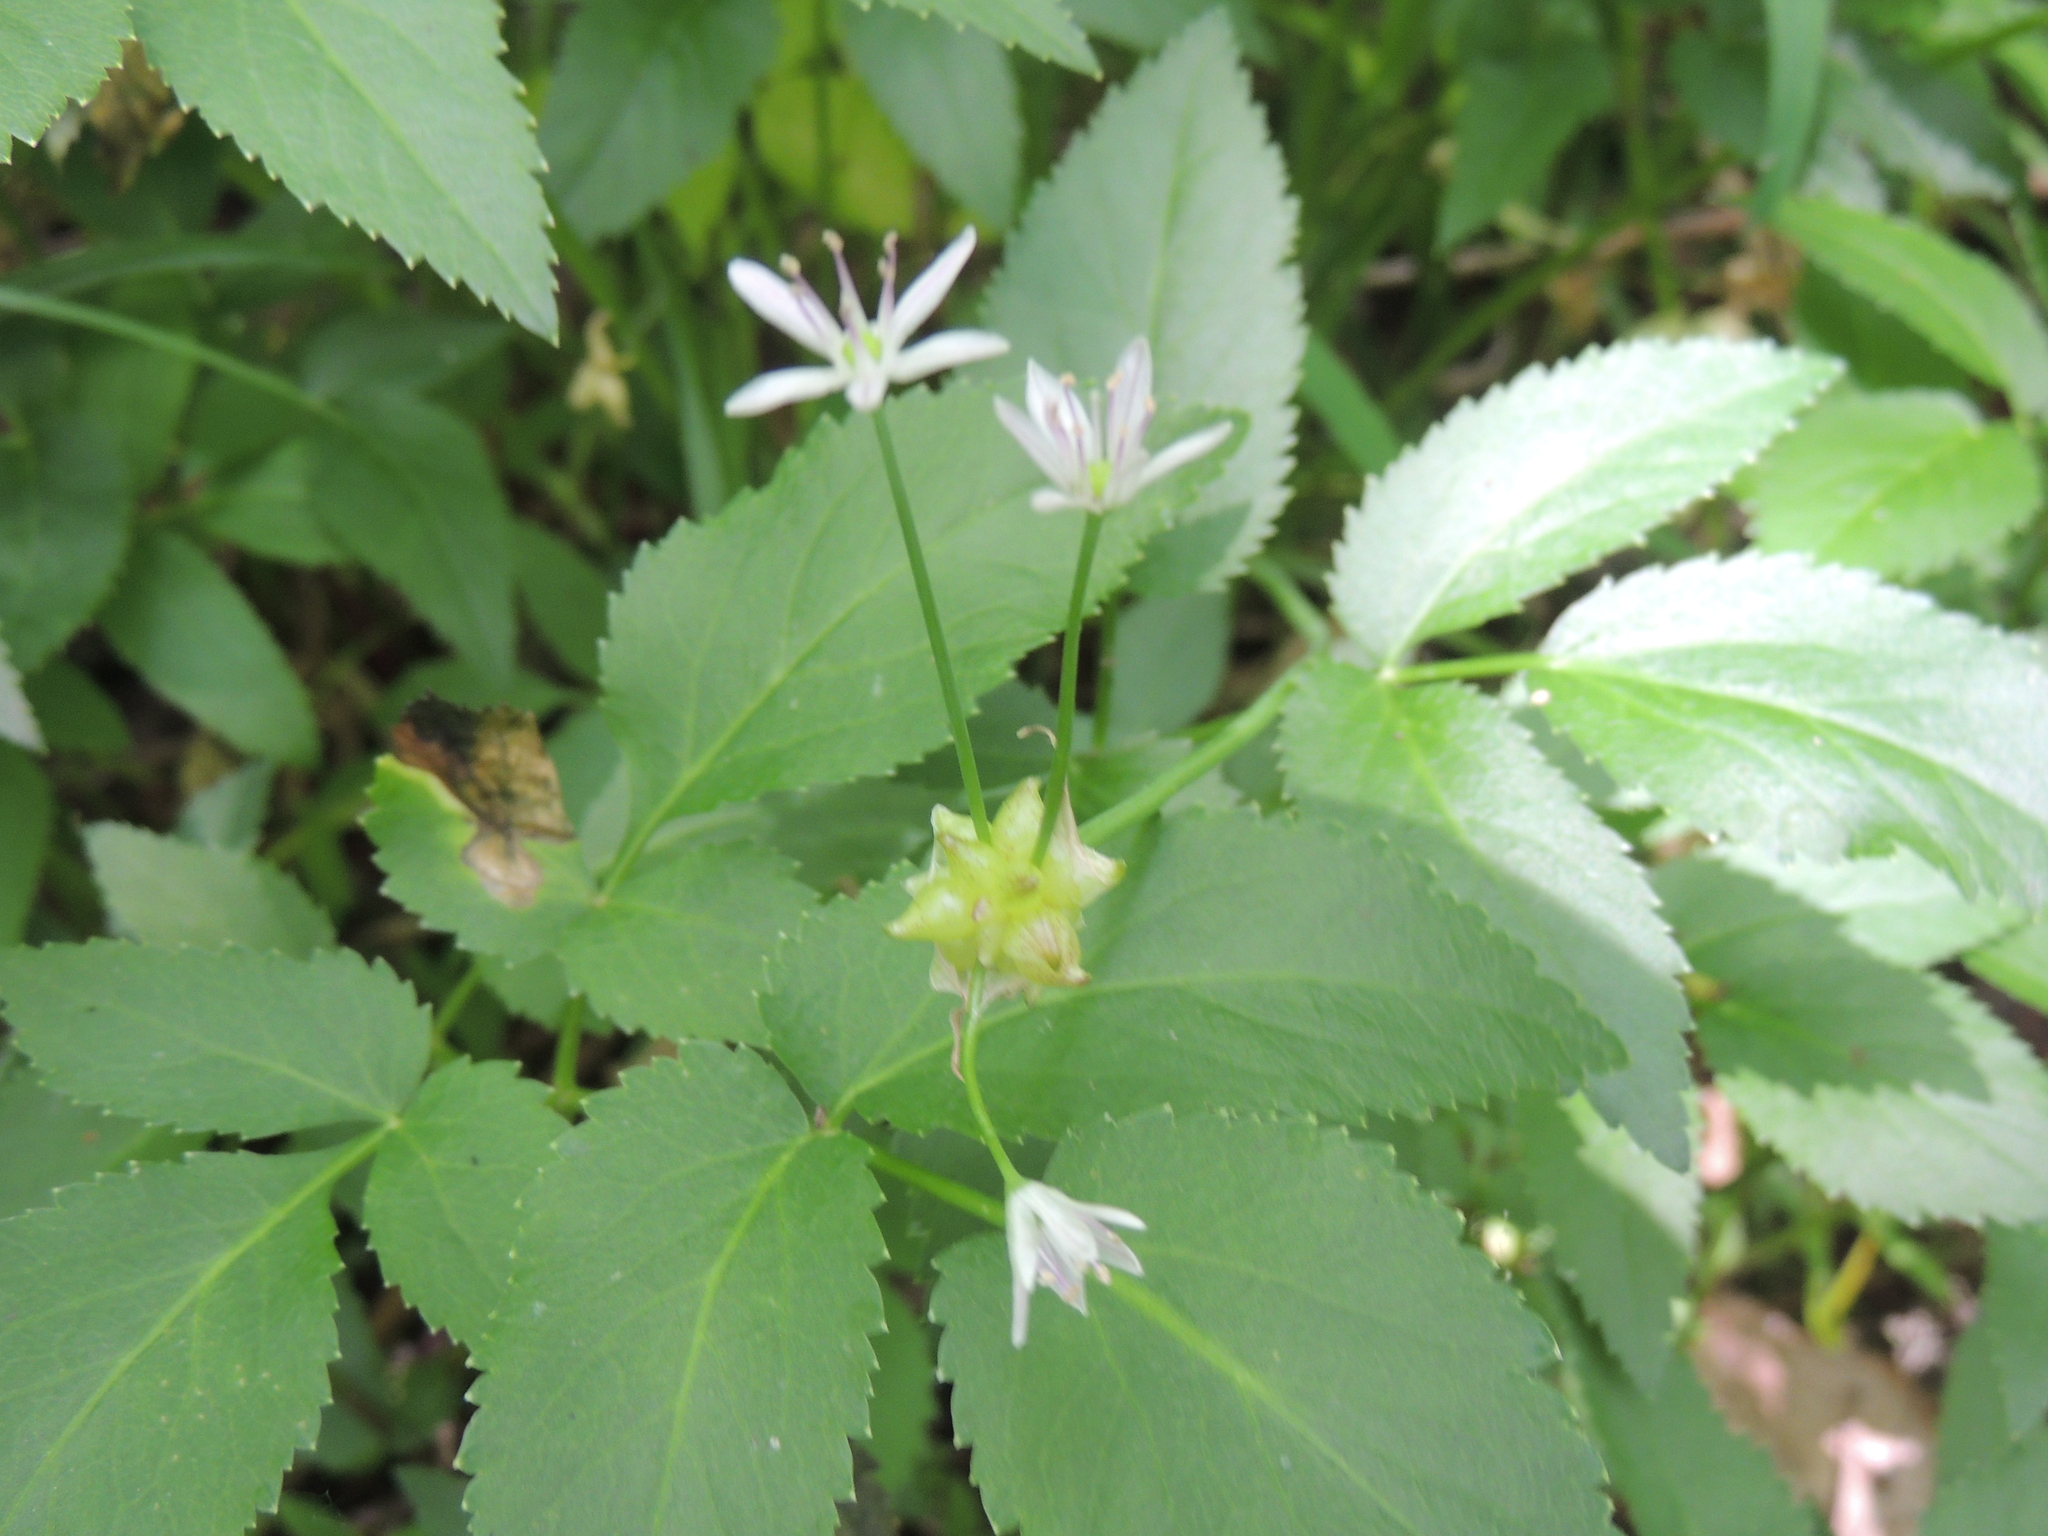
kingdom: Plantae
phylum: Tracheophyta
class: Liliopsida
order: Asparagales
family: Amaryllidaceae
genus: Allium
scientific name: Allium canadense
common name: Meadow garlic
